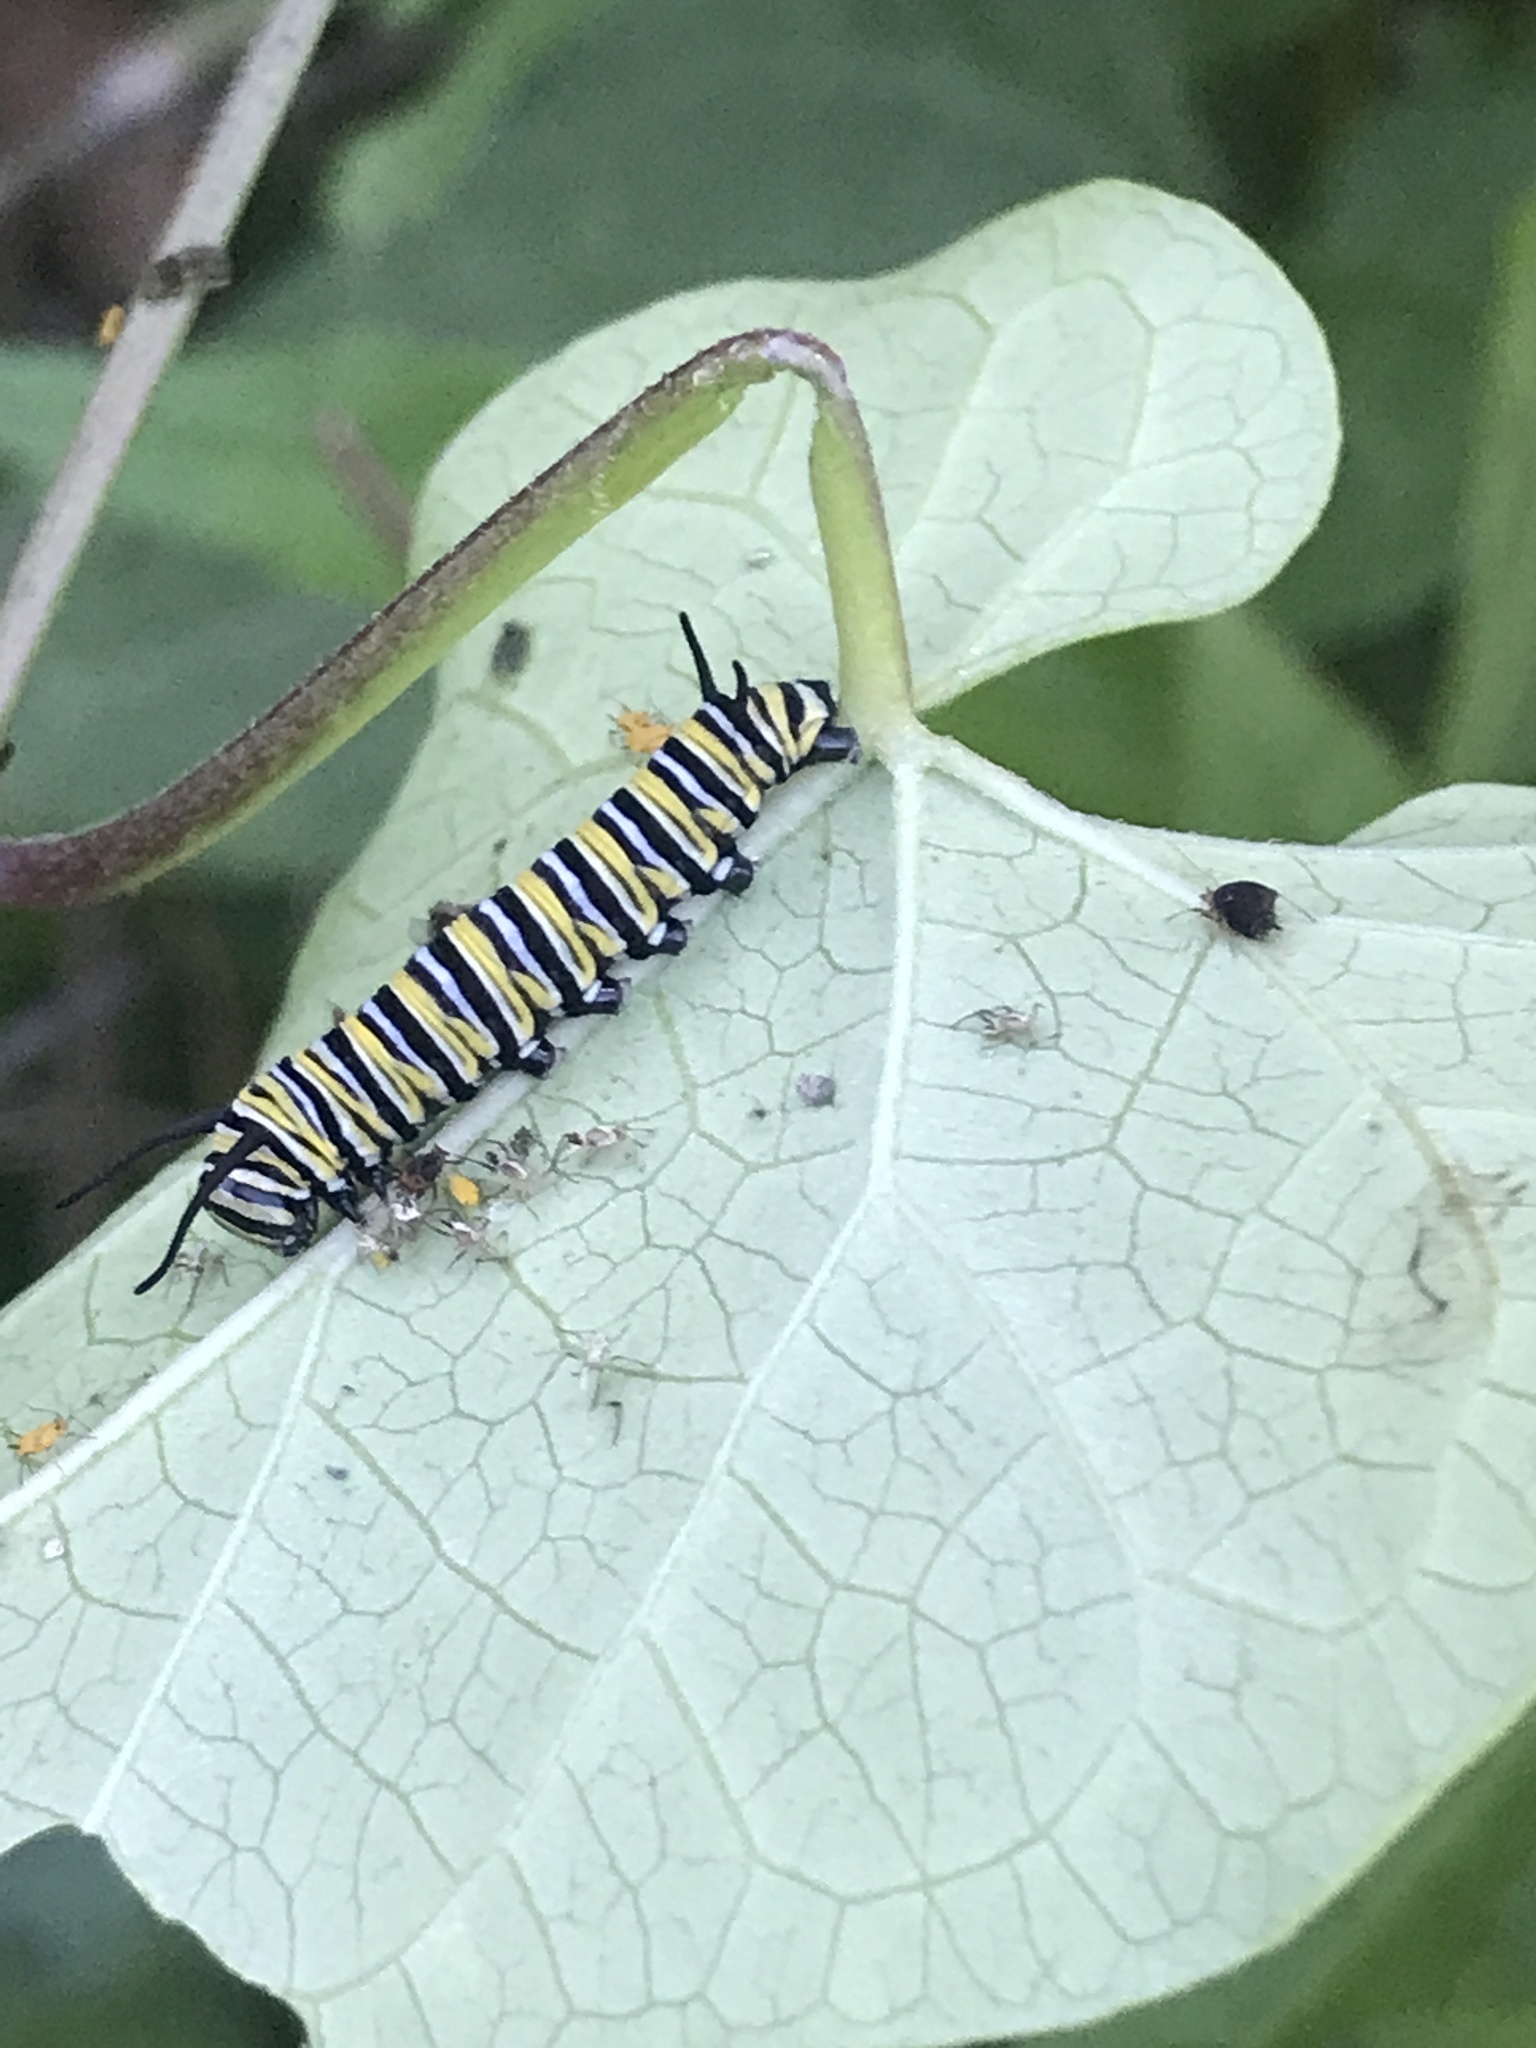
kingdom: Animalia
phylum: Arthropoda
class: Insecta
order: Lepidoptera
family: Nymphalidae
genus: Danaus
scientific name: Danaus plexippus
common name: Monarch
